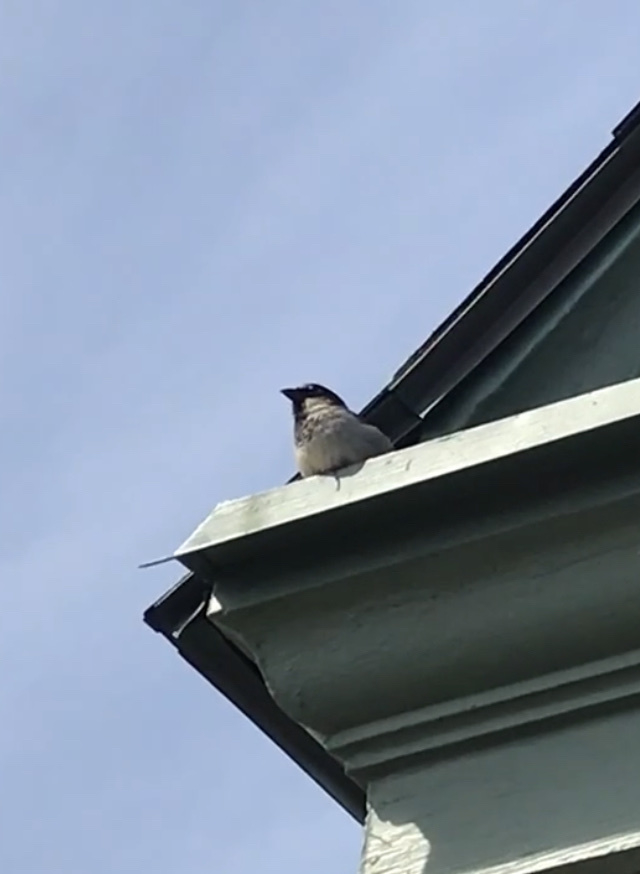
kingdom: Animalia
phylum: Chordata
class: Aves
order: Passeriformes
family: Passeridae
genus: Passer
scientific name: Passer domesticus
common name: House sparrow
